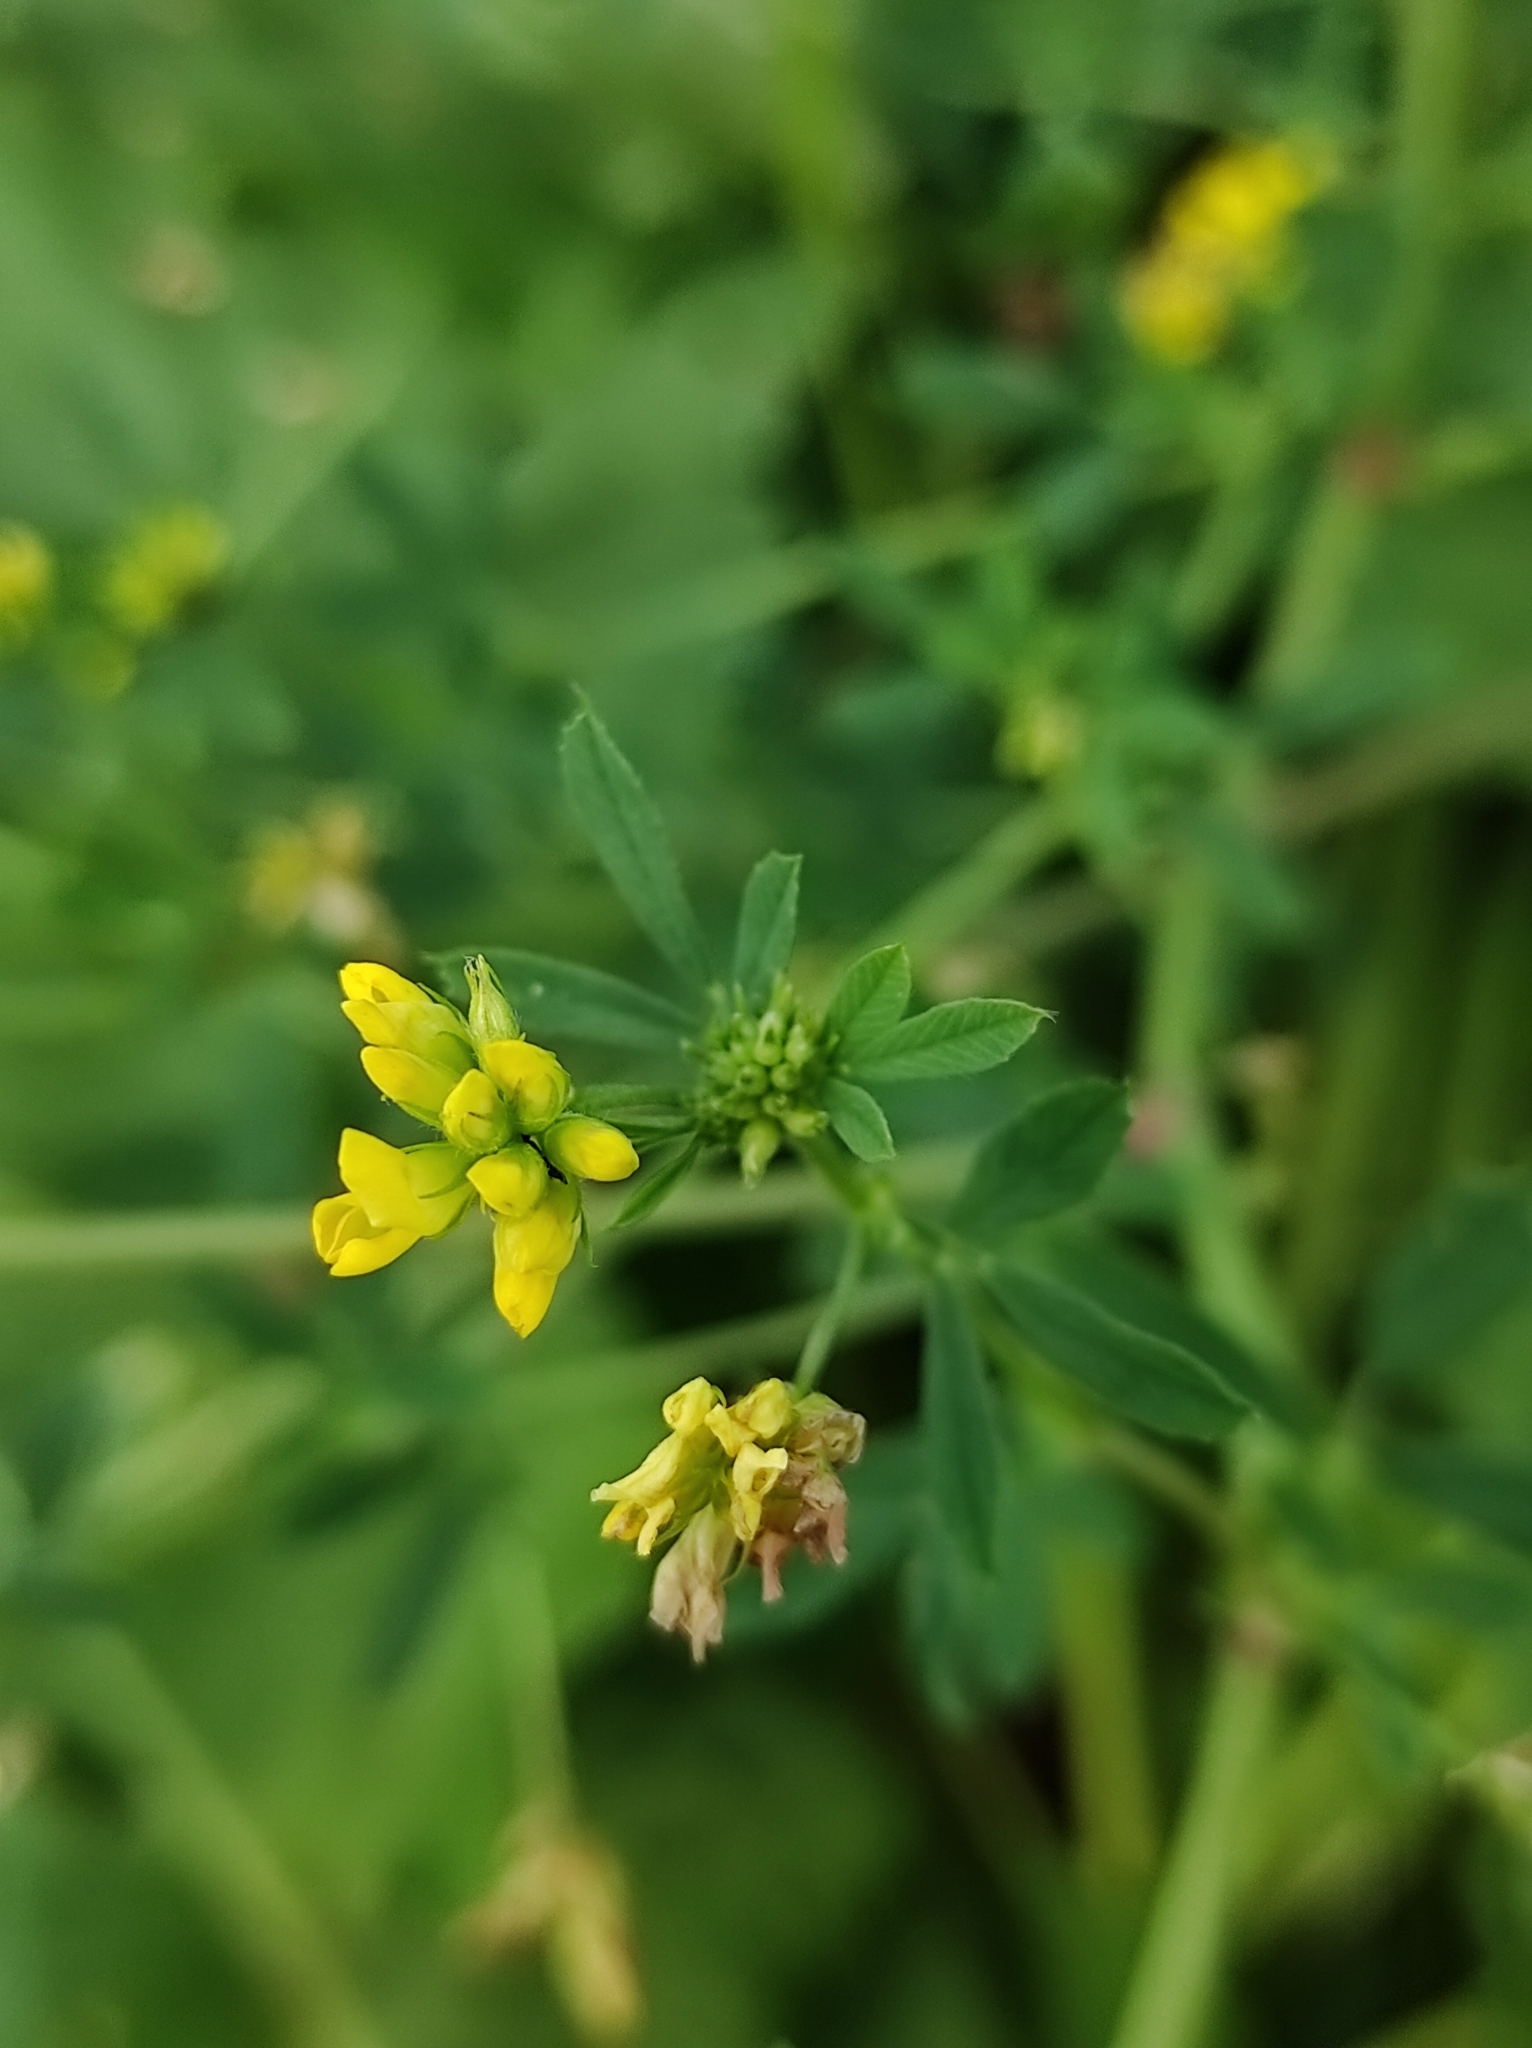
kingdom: Plantae
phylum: Tracheophyta
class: Magnoliopsida
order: Fabales
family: Fabaceae
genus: Medicago
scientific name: Medicago falcata
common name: Sickle medick
